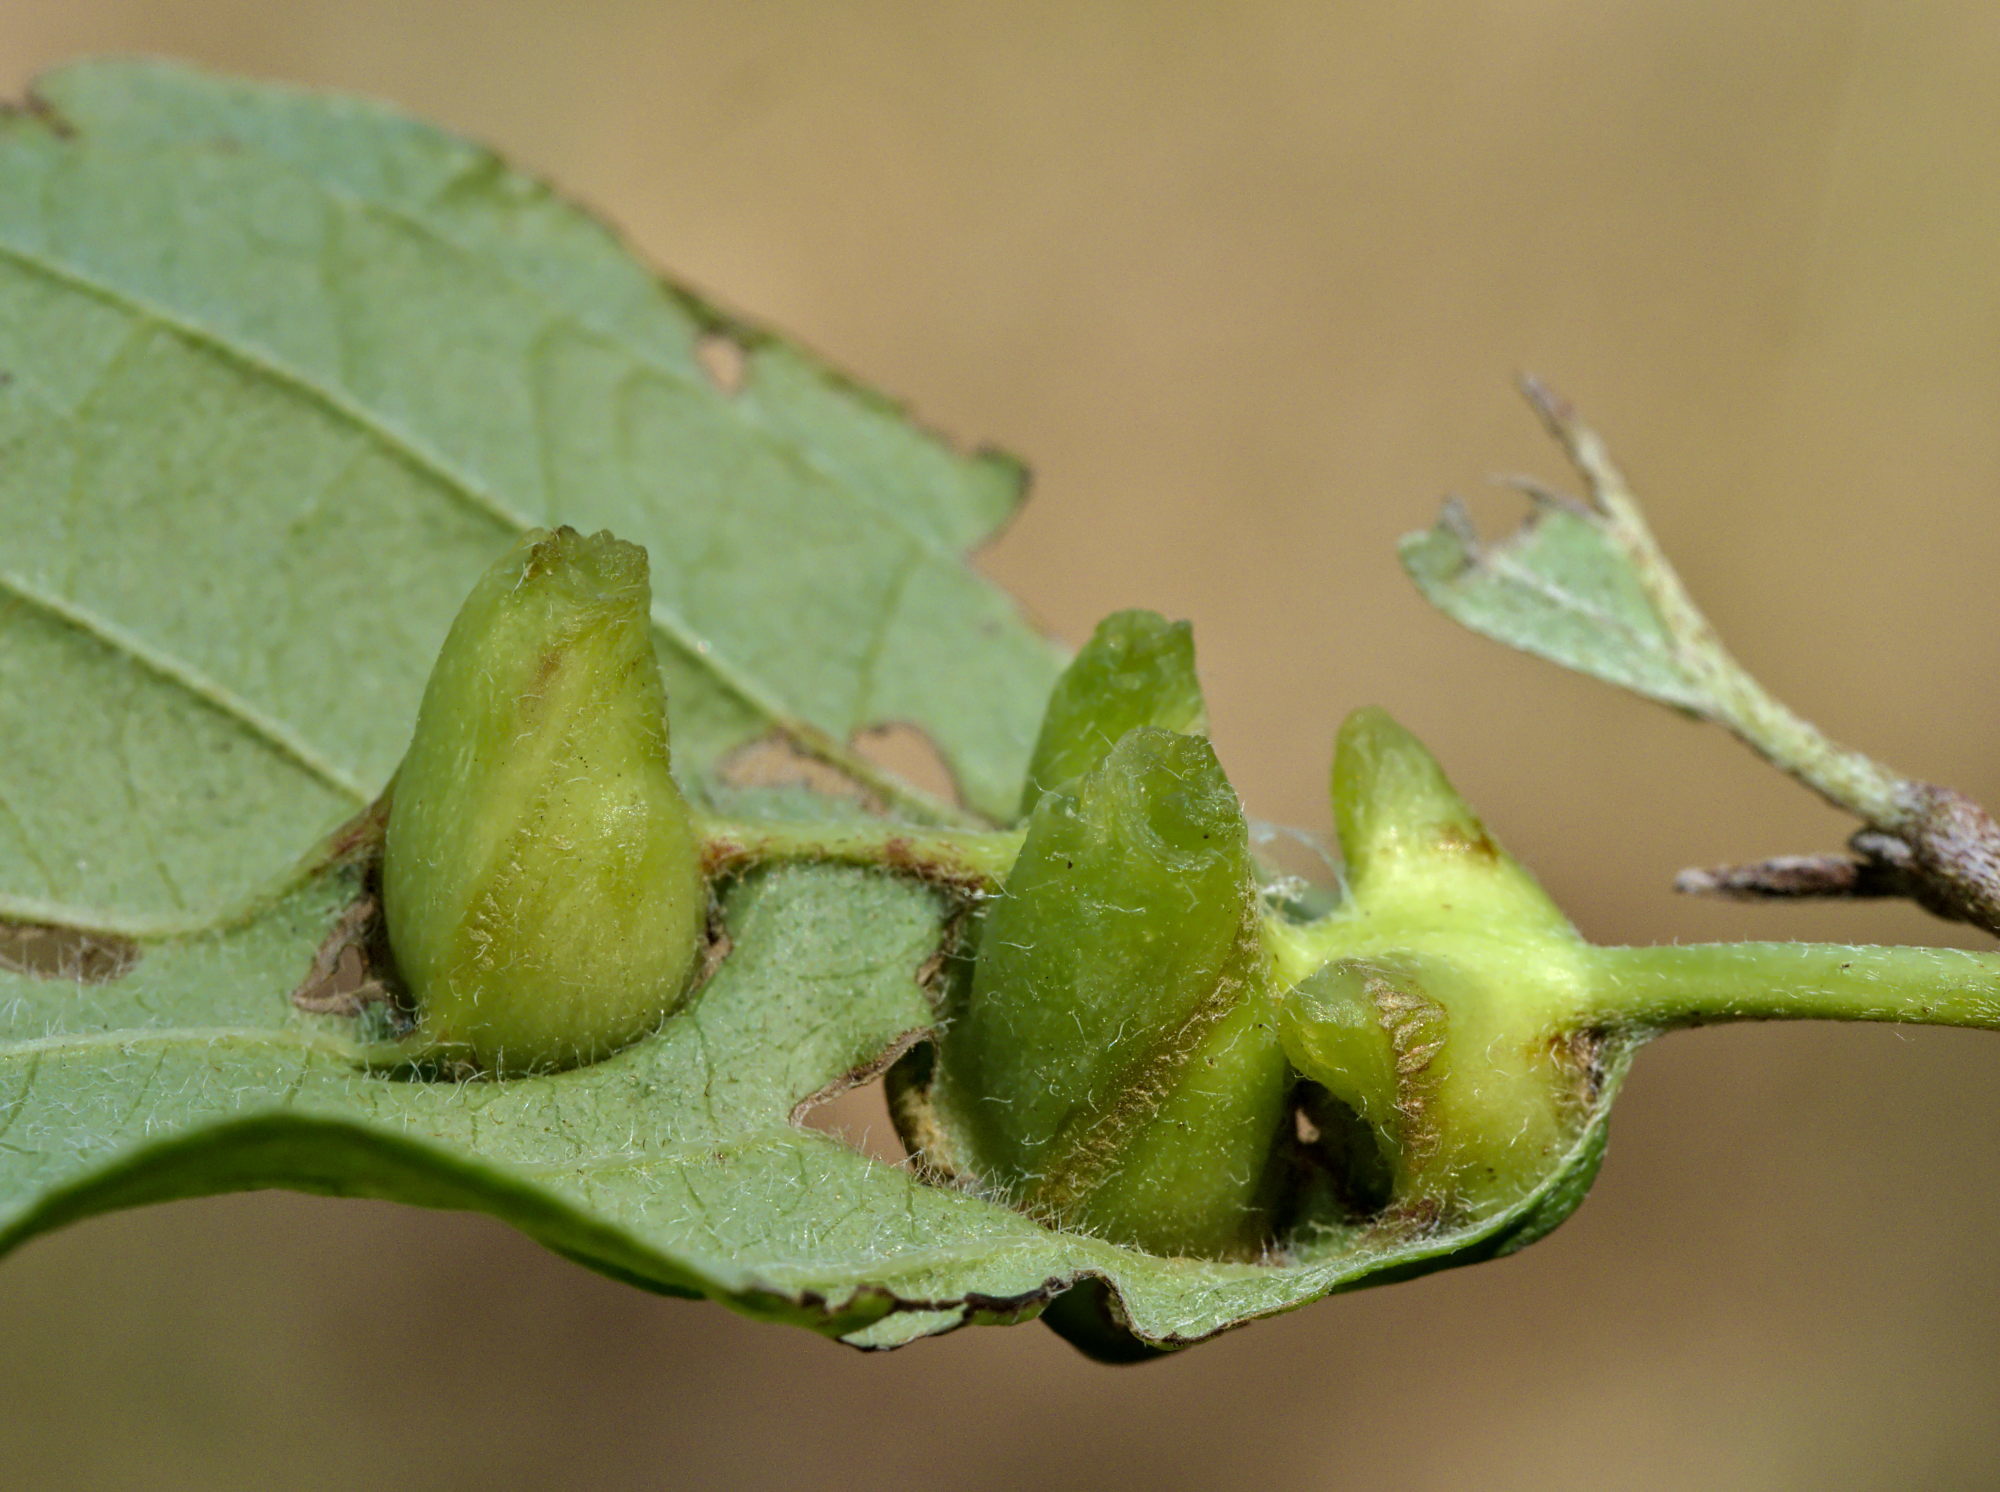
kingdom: Animalia
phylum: Arthropoda
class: Insecta
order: Diptera
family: Cecidomyiidae
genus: Craneiobia
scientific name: Craneiobia corni
